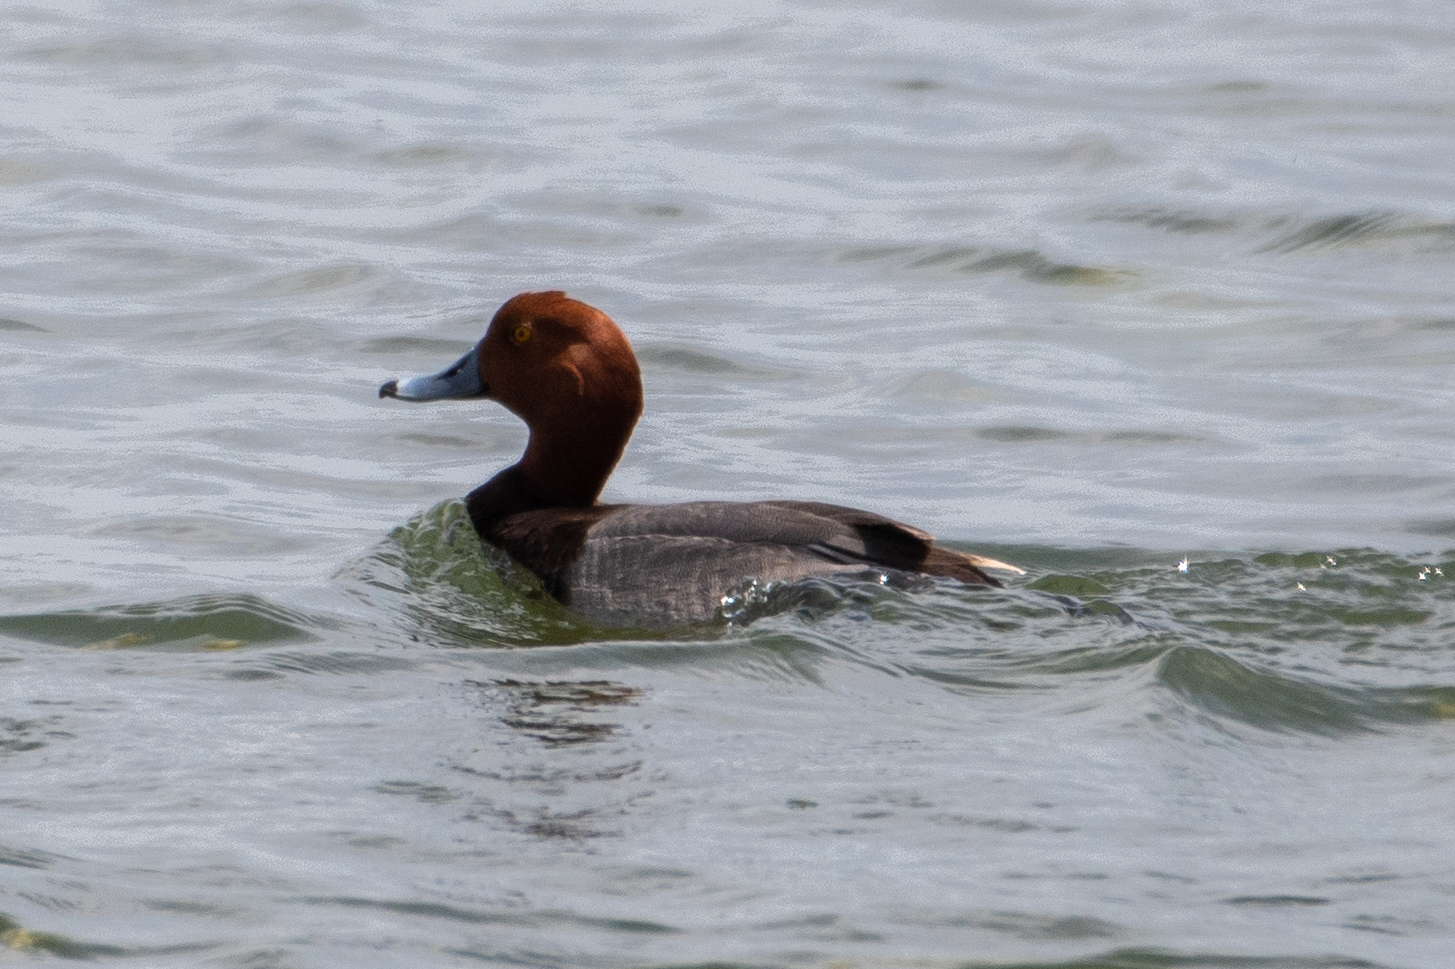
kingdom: Animalia
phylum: Chordata
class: Aves
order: Anseriformes
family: Anatidae
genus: Aythya
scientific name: Aythya americana
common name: Redhead
